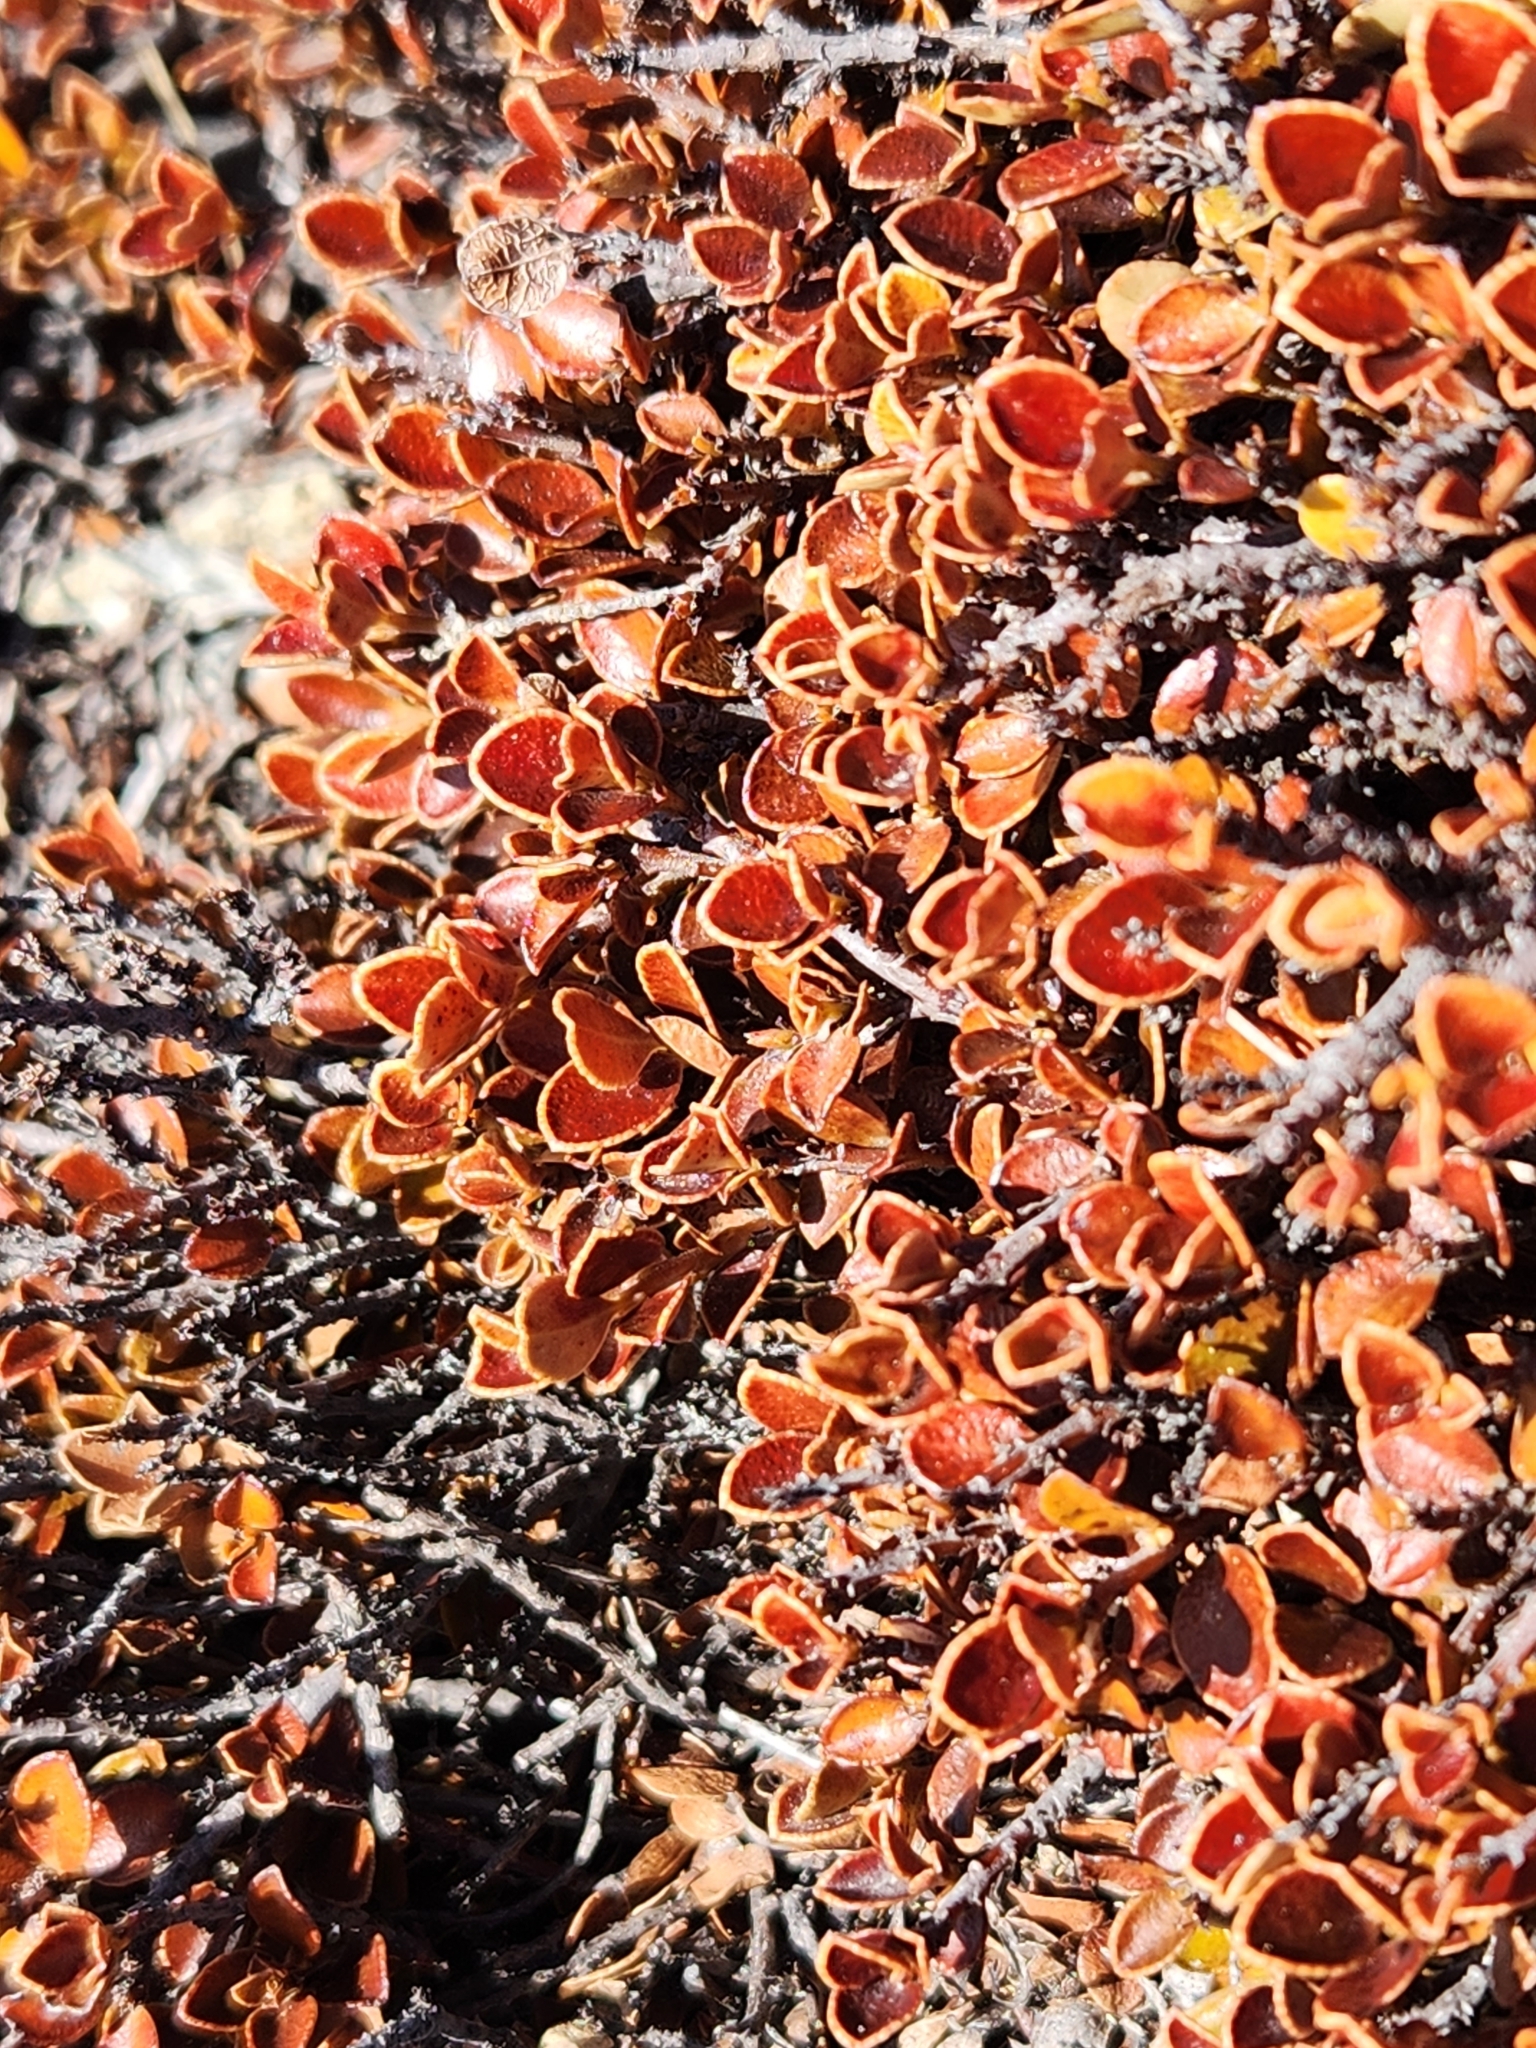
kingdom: Plantae
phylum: Tracheophyta
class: Magnoliopsida
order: Ericales
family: Primulaceae
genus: Myrsine
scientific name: Myrsine nummularia
